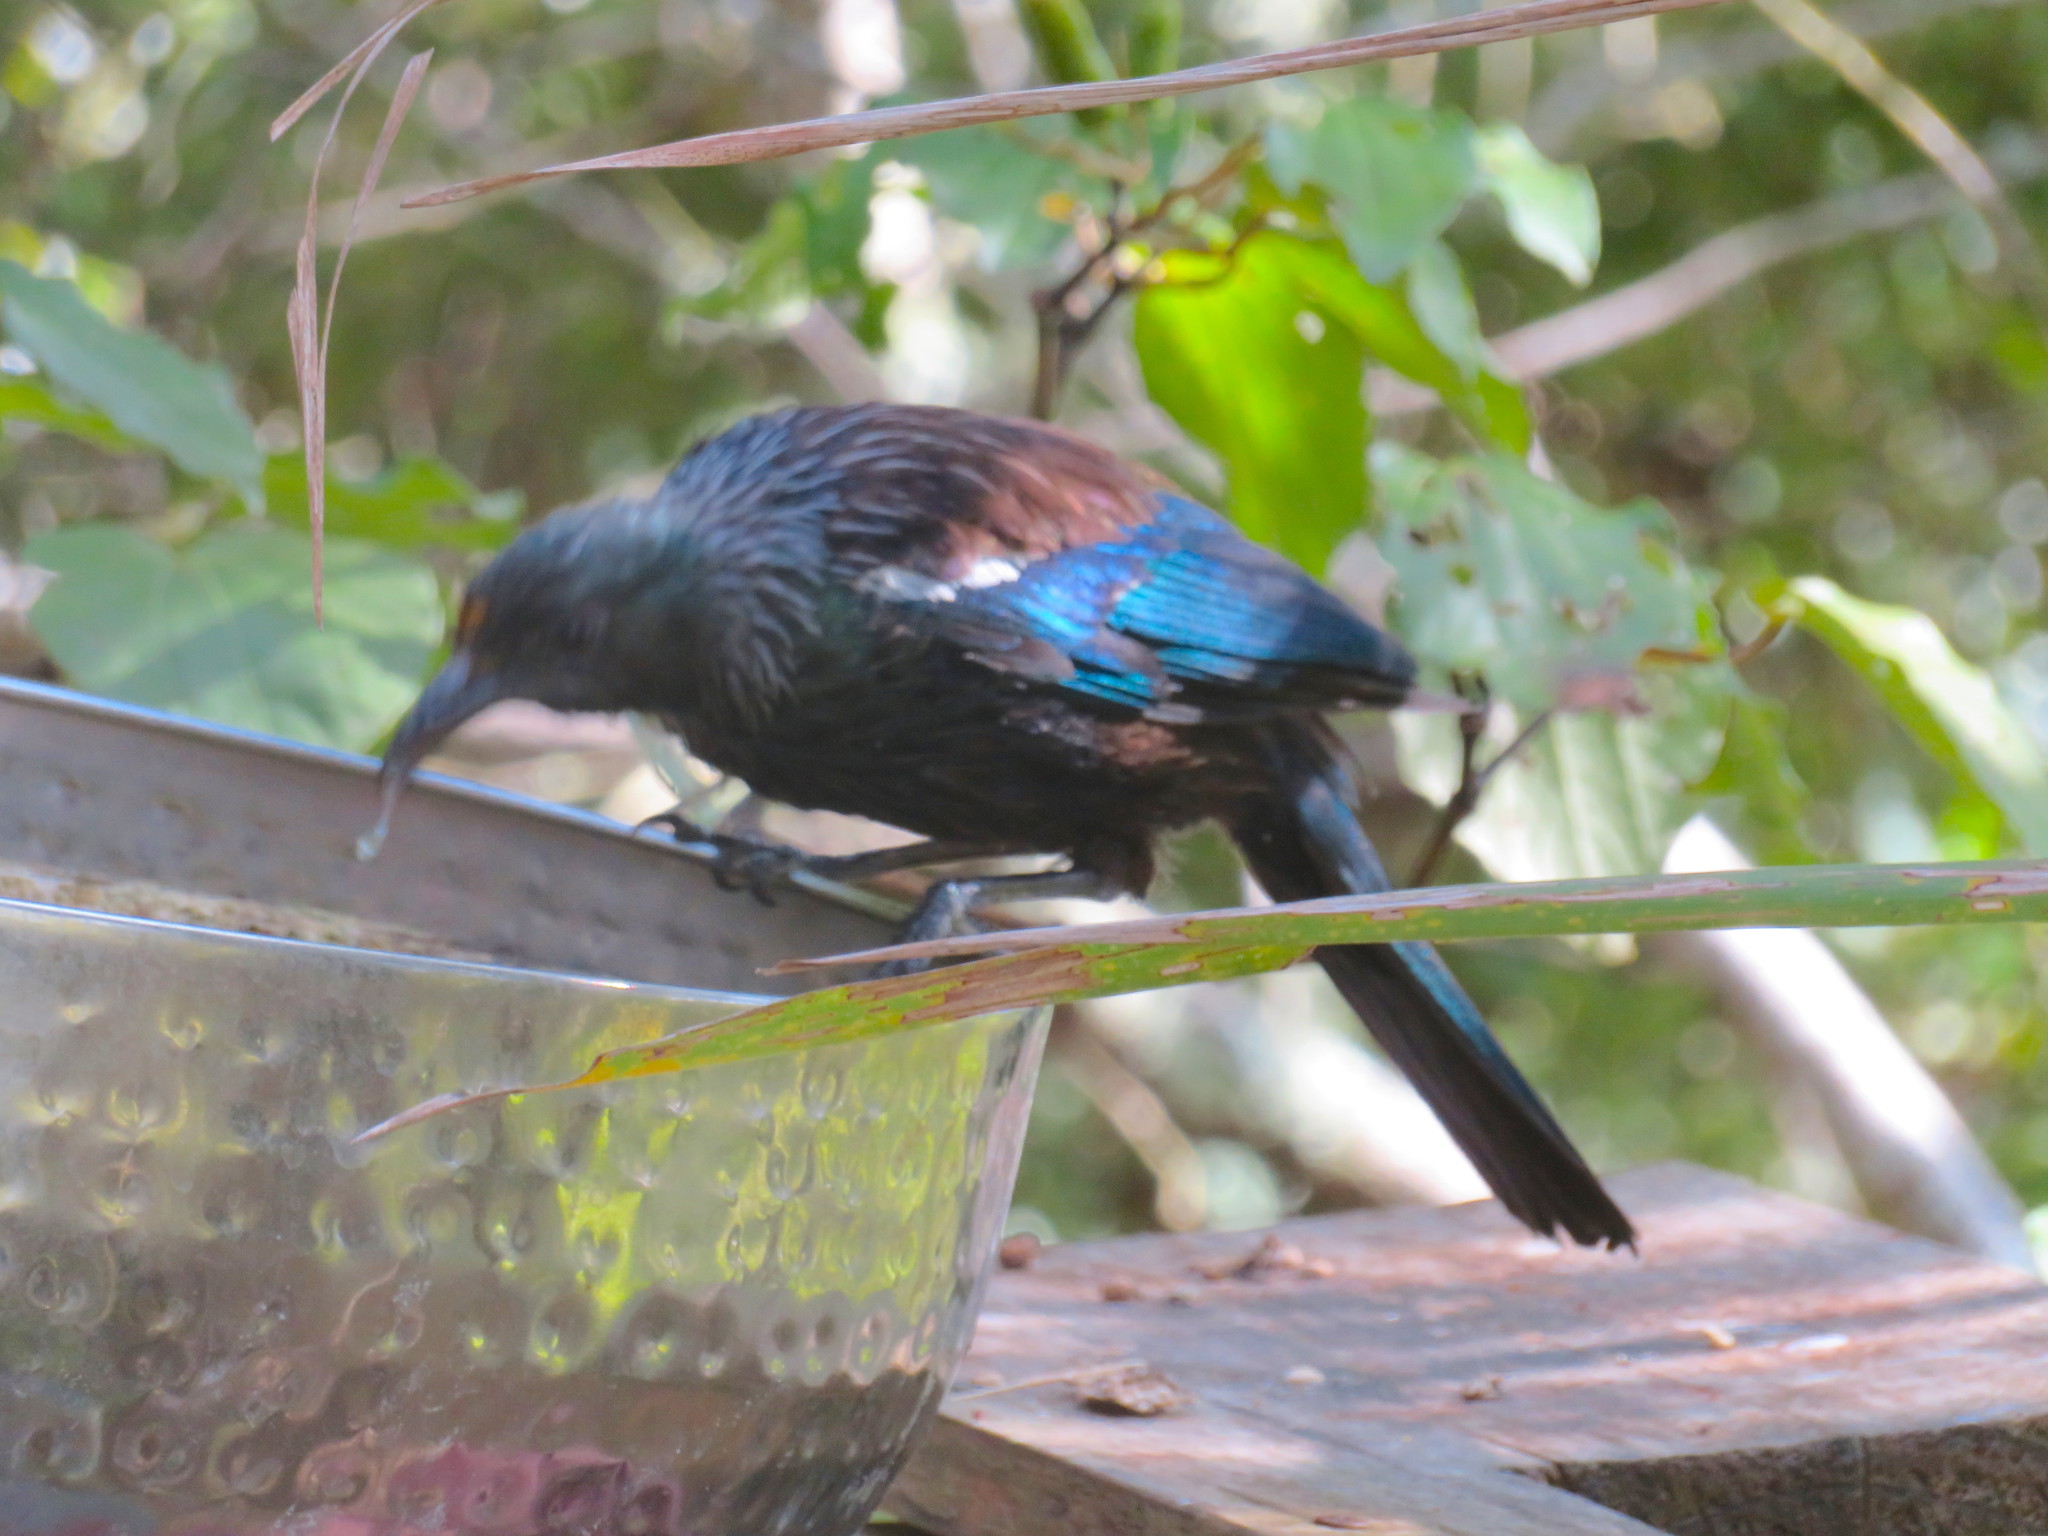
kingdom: Animalia
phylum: Chordata
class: Aves
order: Passeriformes
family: Meliphagidae
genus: Prosthemadera
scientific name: Prosthemadera novaeseelandiae
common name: Tui
